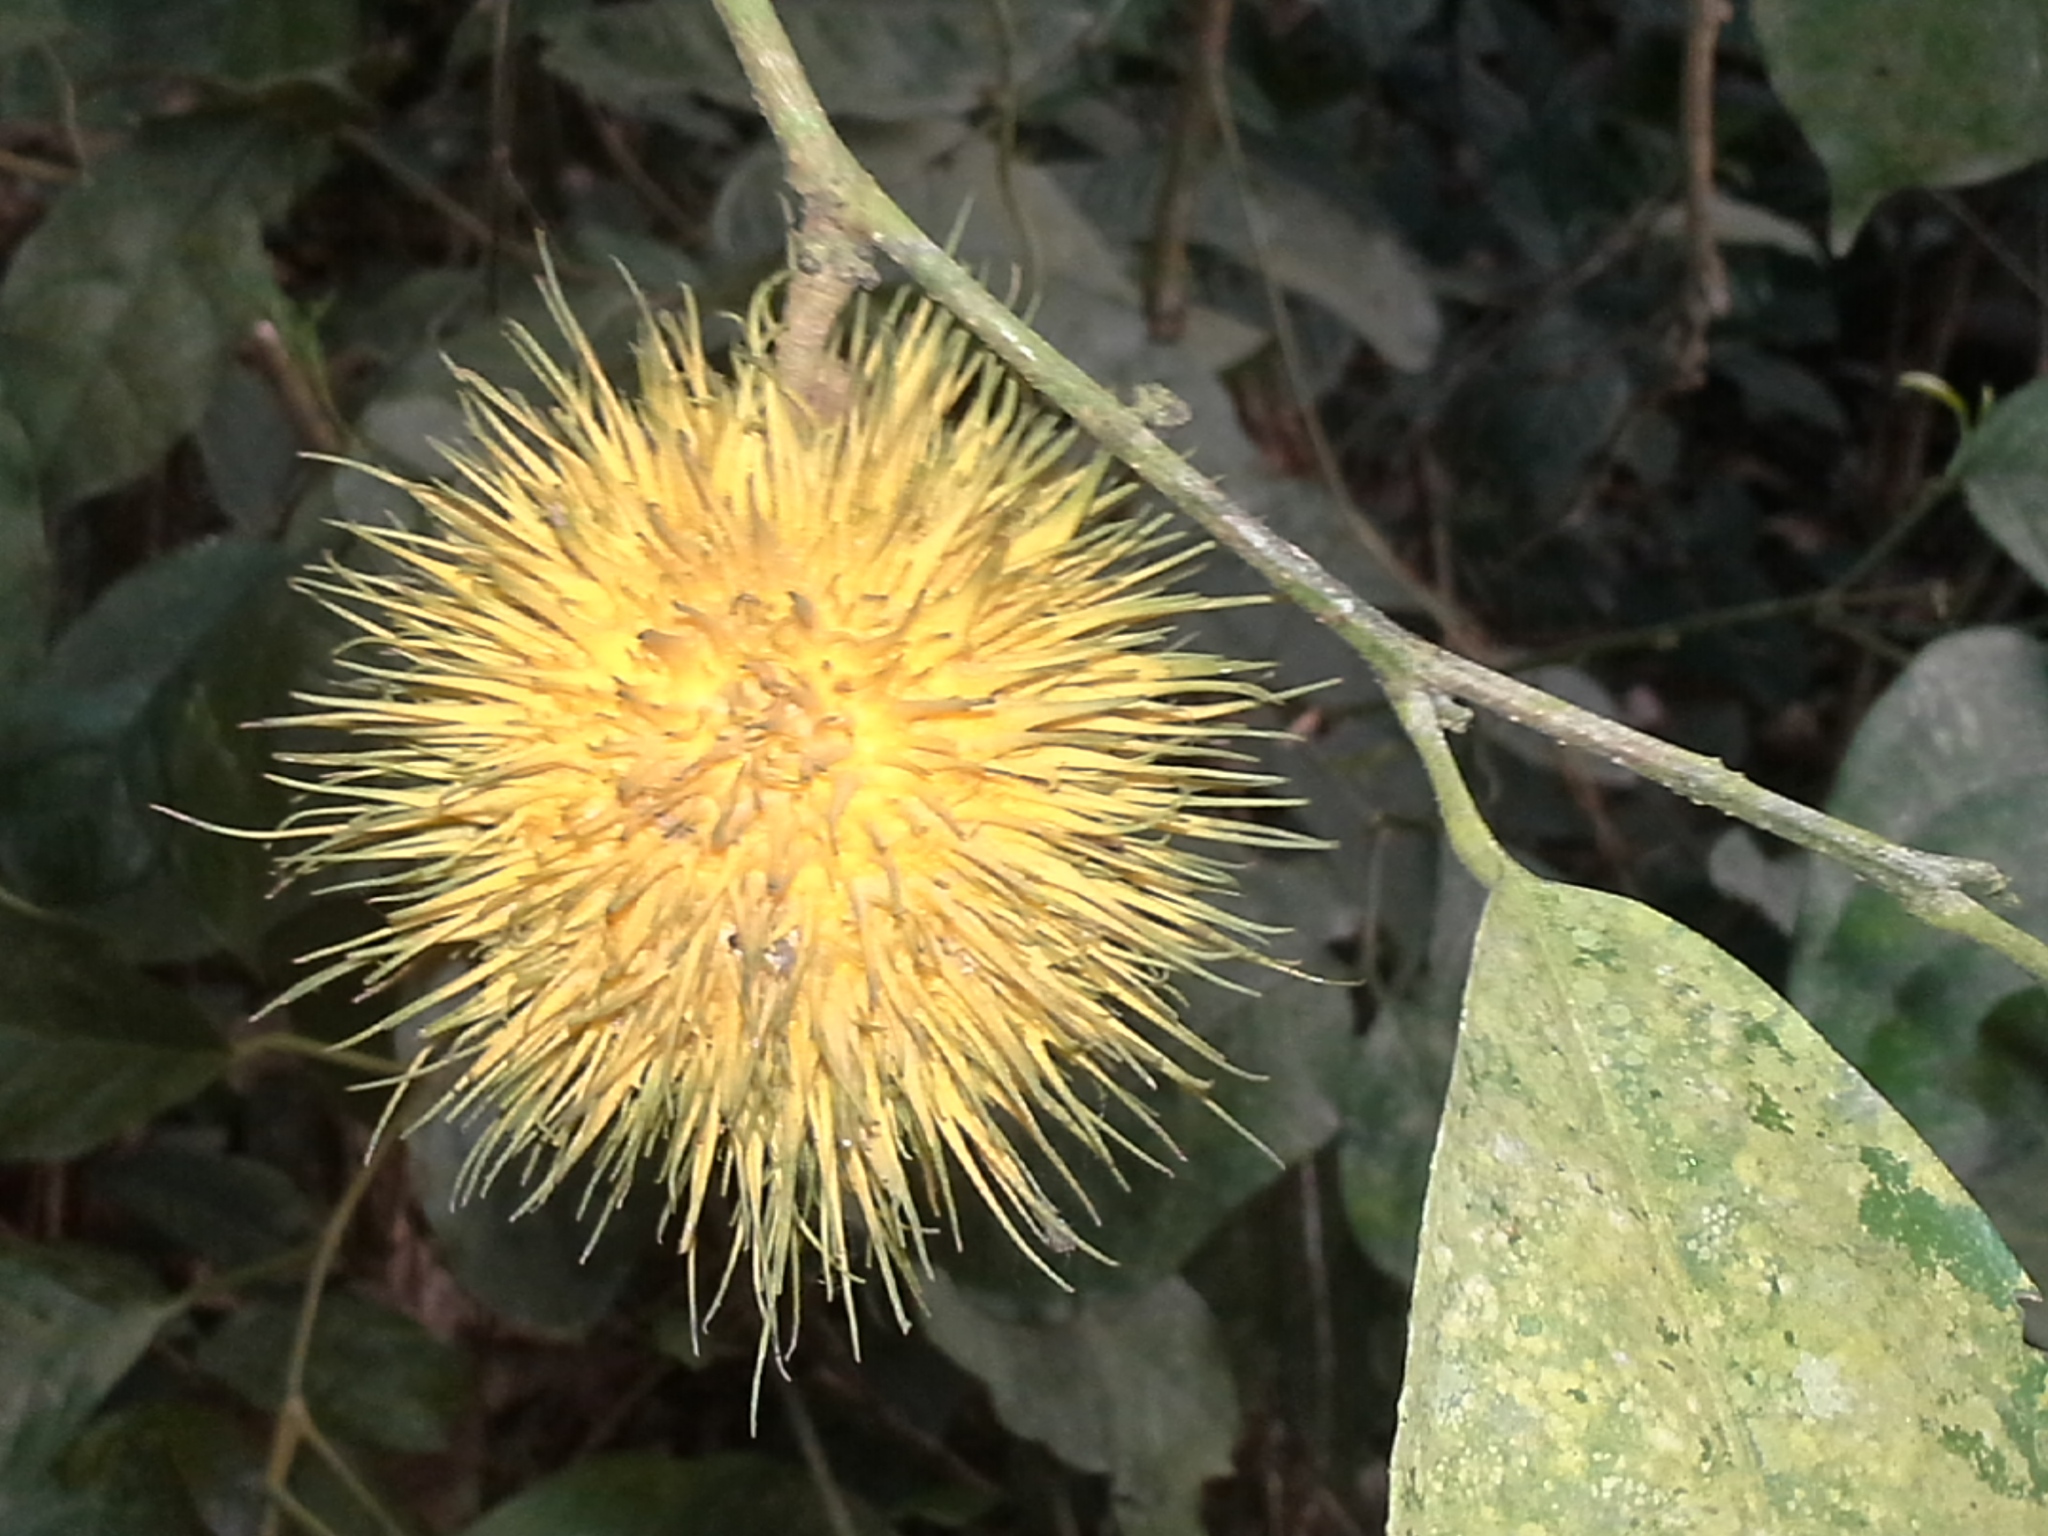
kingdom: Plantae
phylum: Tracheophyta
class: Magnoliopsida
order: Malpighiales
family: Achariaceae
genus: Caloncoba
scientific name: Caloncoba echinata
